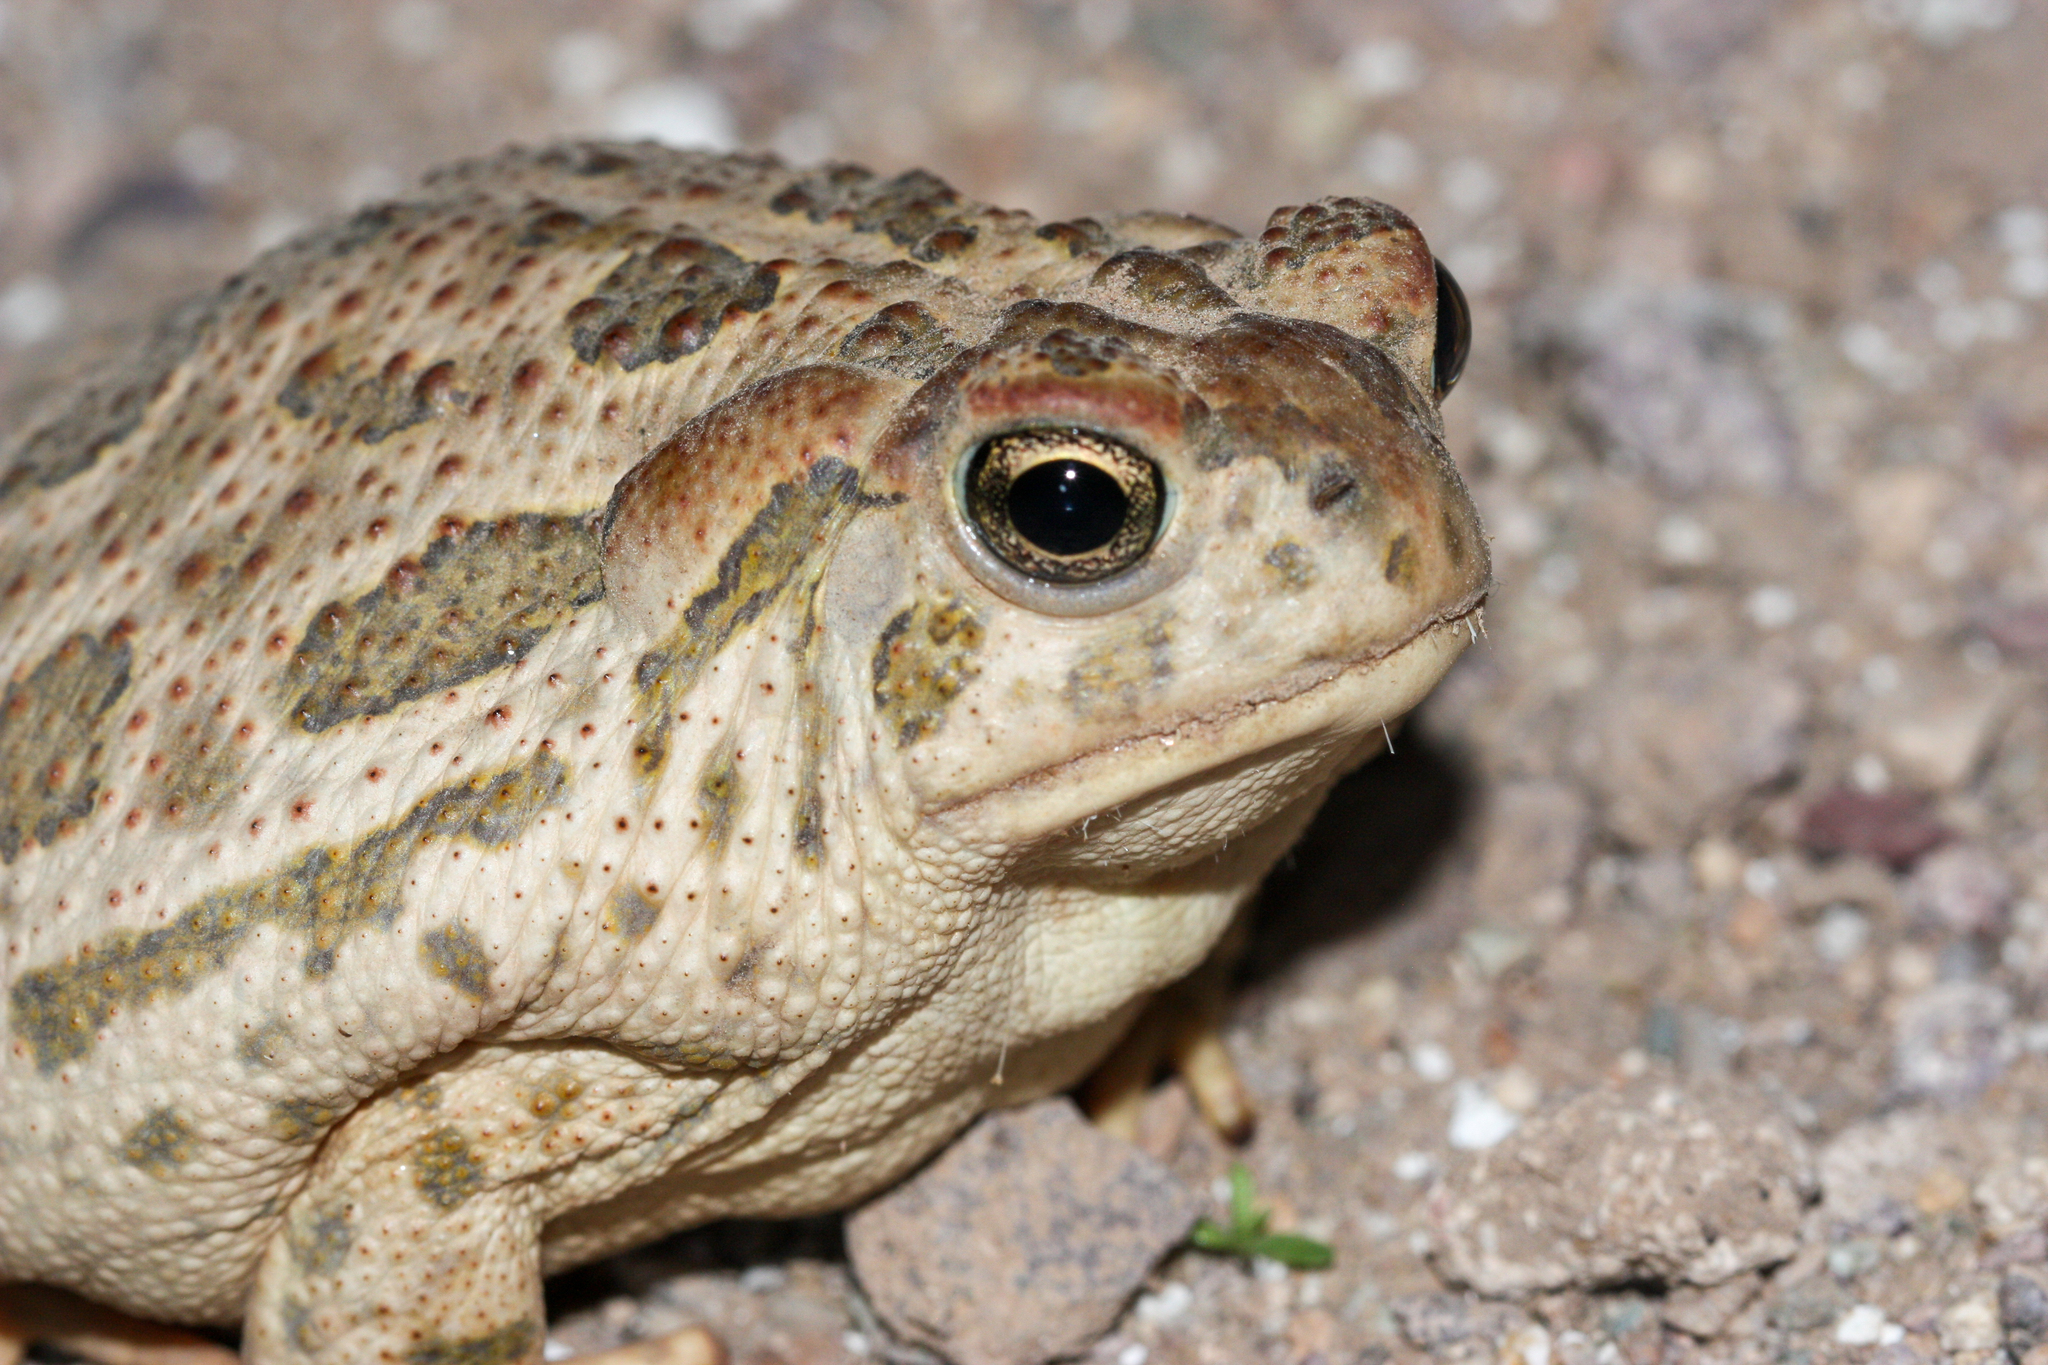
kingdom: Animalia
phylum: Chordata
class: Amphibia
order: Anura
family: Bufonidae
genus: Anaxyrus
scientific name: Anaxyrus cognatus
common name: Great plains toad
